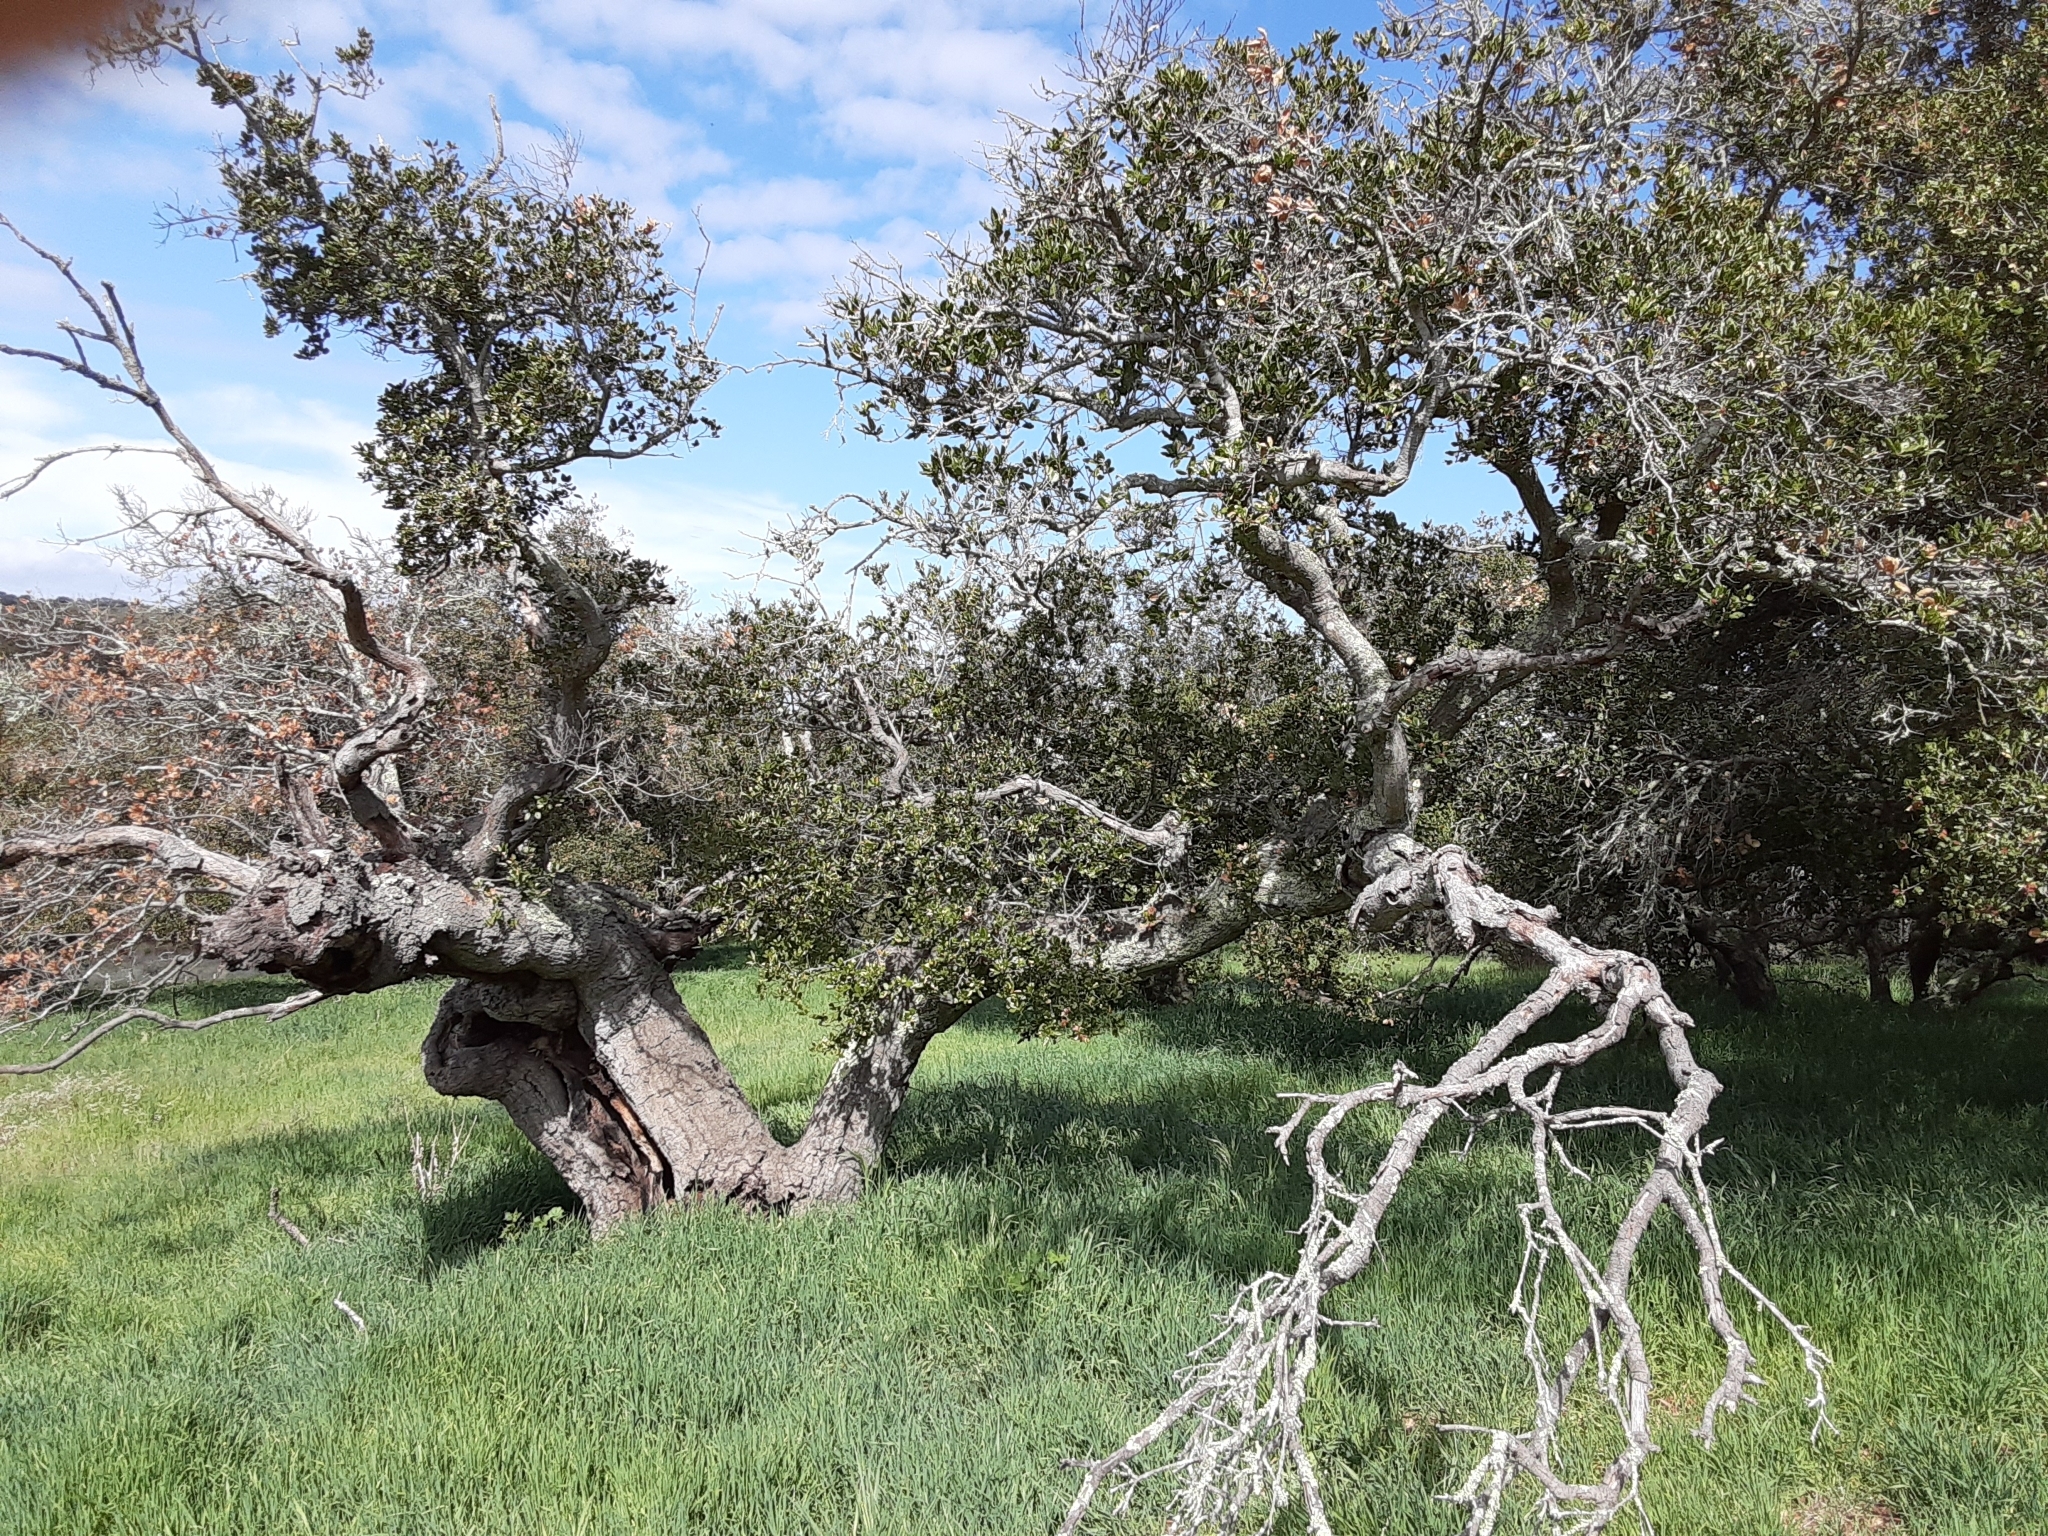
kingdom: Plantae
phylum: Tracheophyta
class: Magnoliopsida
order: Fagales
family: Fagaceae
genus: Quercus
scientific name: Quercus agrifolia
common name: California live oak
